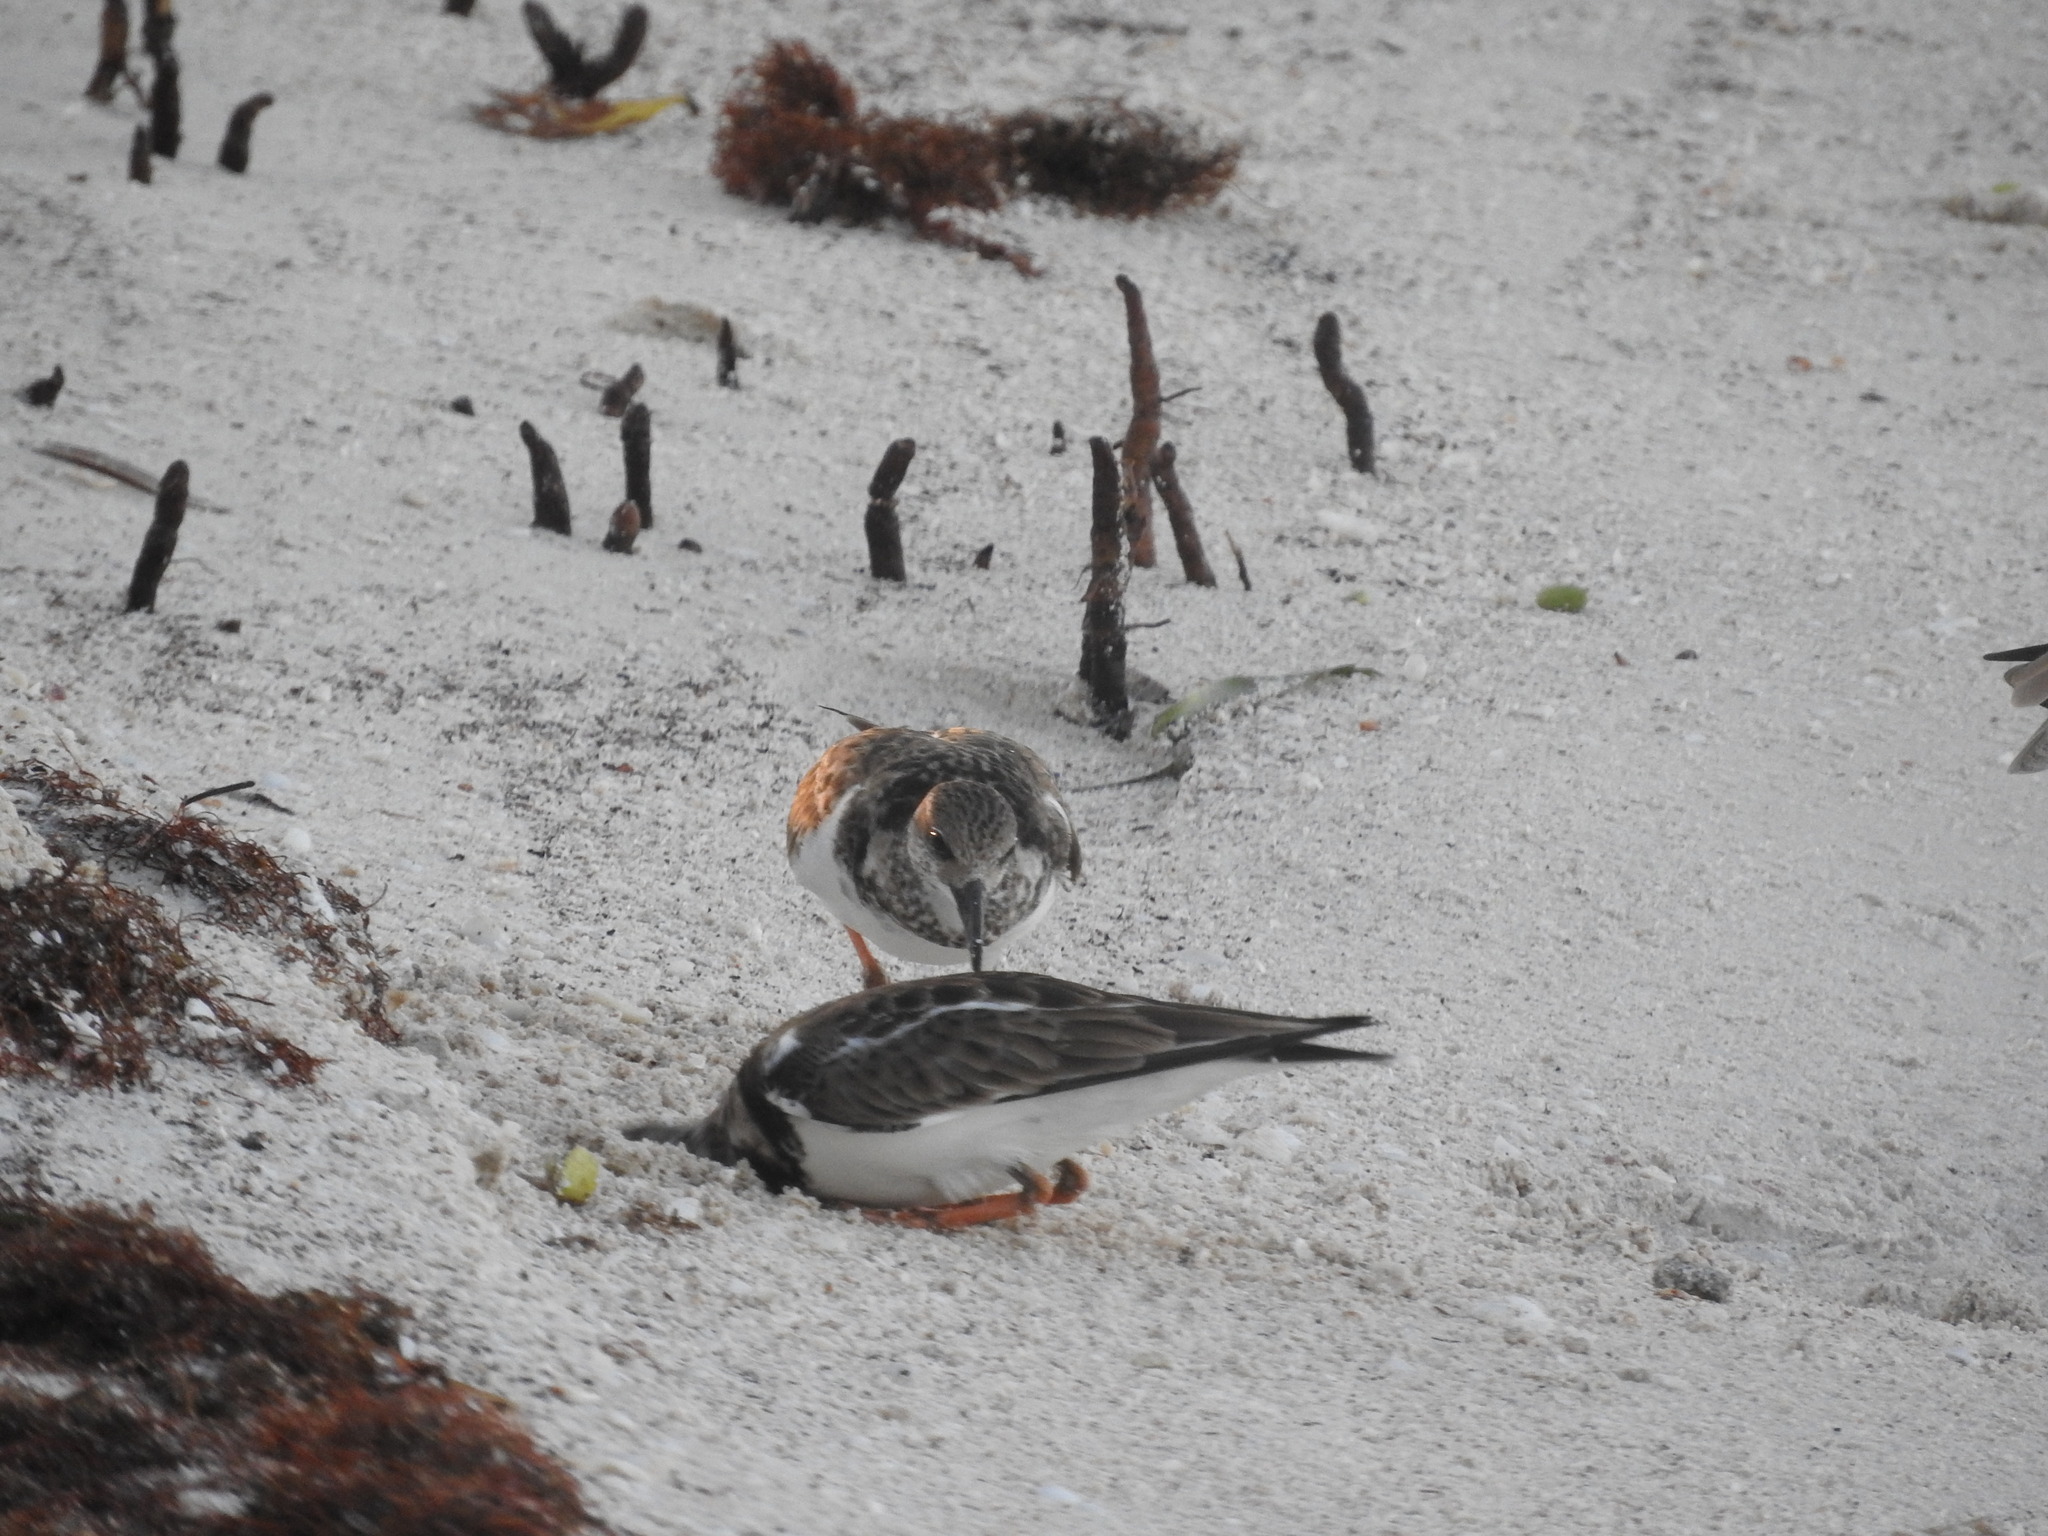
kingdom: Animalia
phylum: Chordata
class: Aves
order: Charadriiformes
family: Scolopacidae
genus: Arenaria
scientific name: Arenaria interpres
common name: Ruddy turnstone
